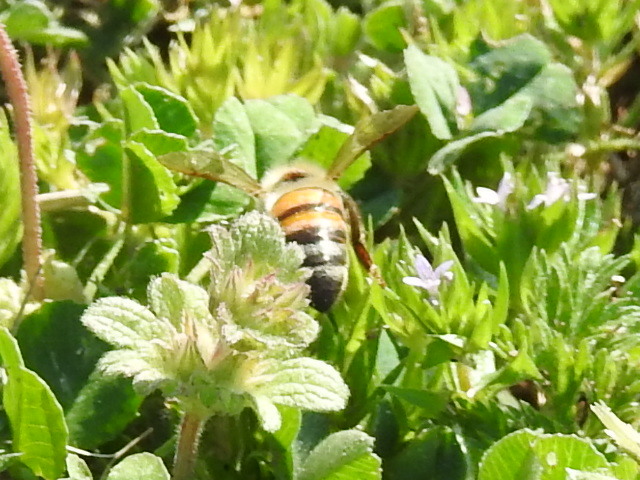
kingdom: Animalia
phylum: Arthropoda
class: Insecta
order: Hymenoptera
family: Apidae
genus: Apis
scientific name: Apis mellifera
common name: Honey bee
